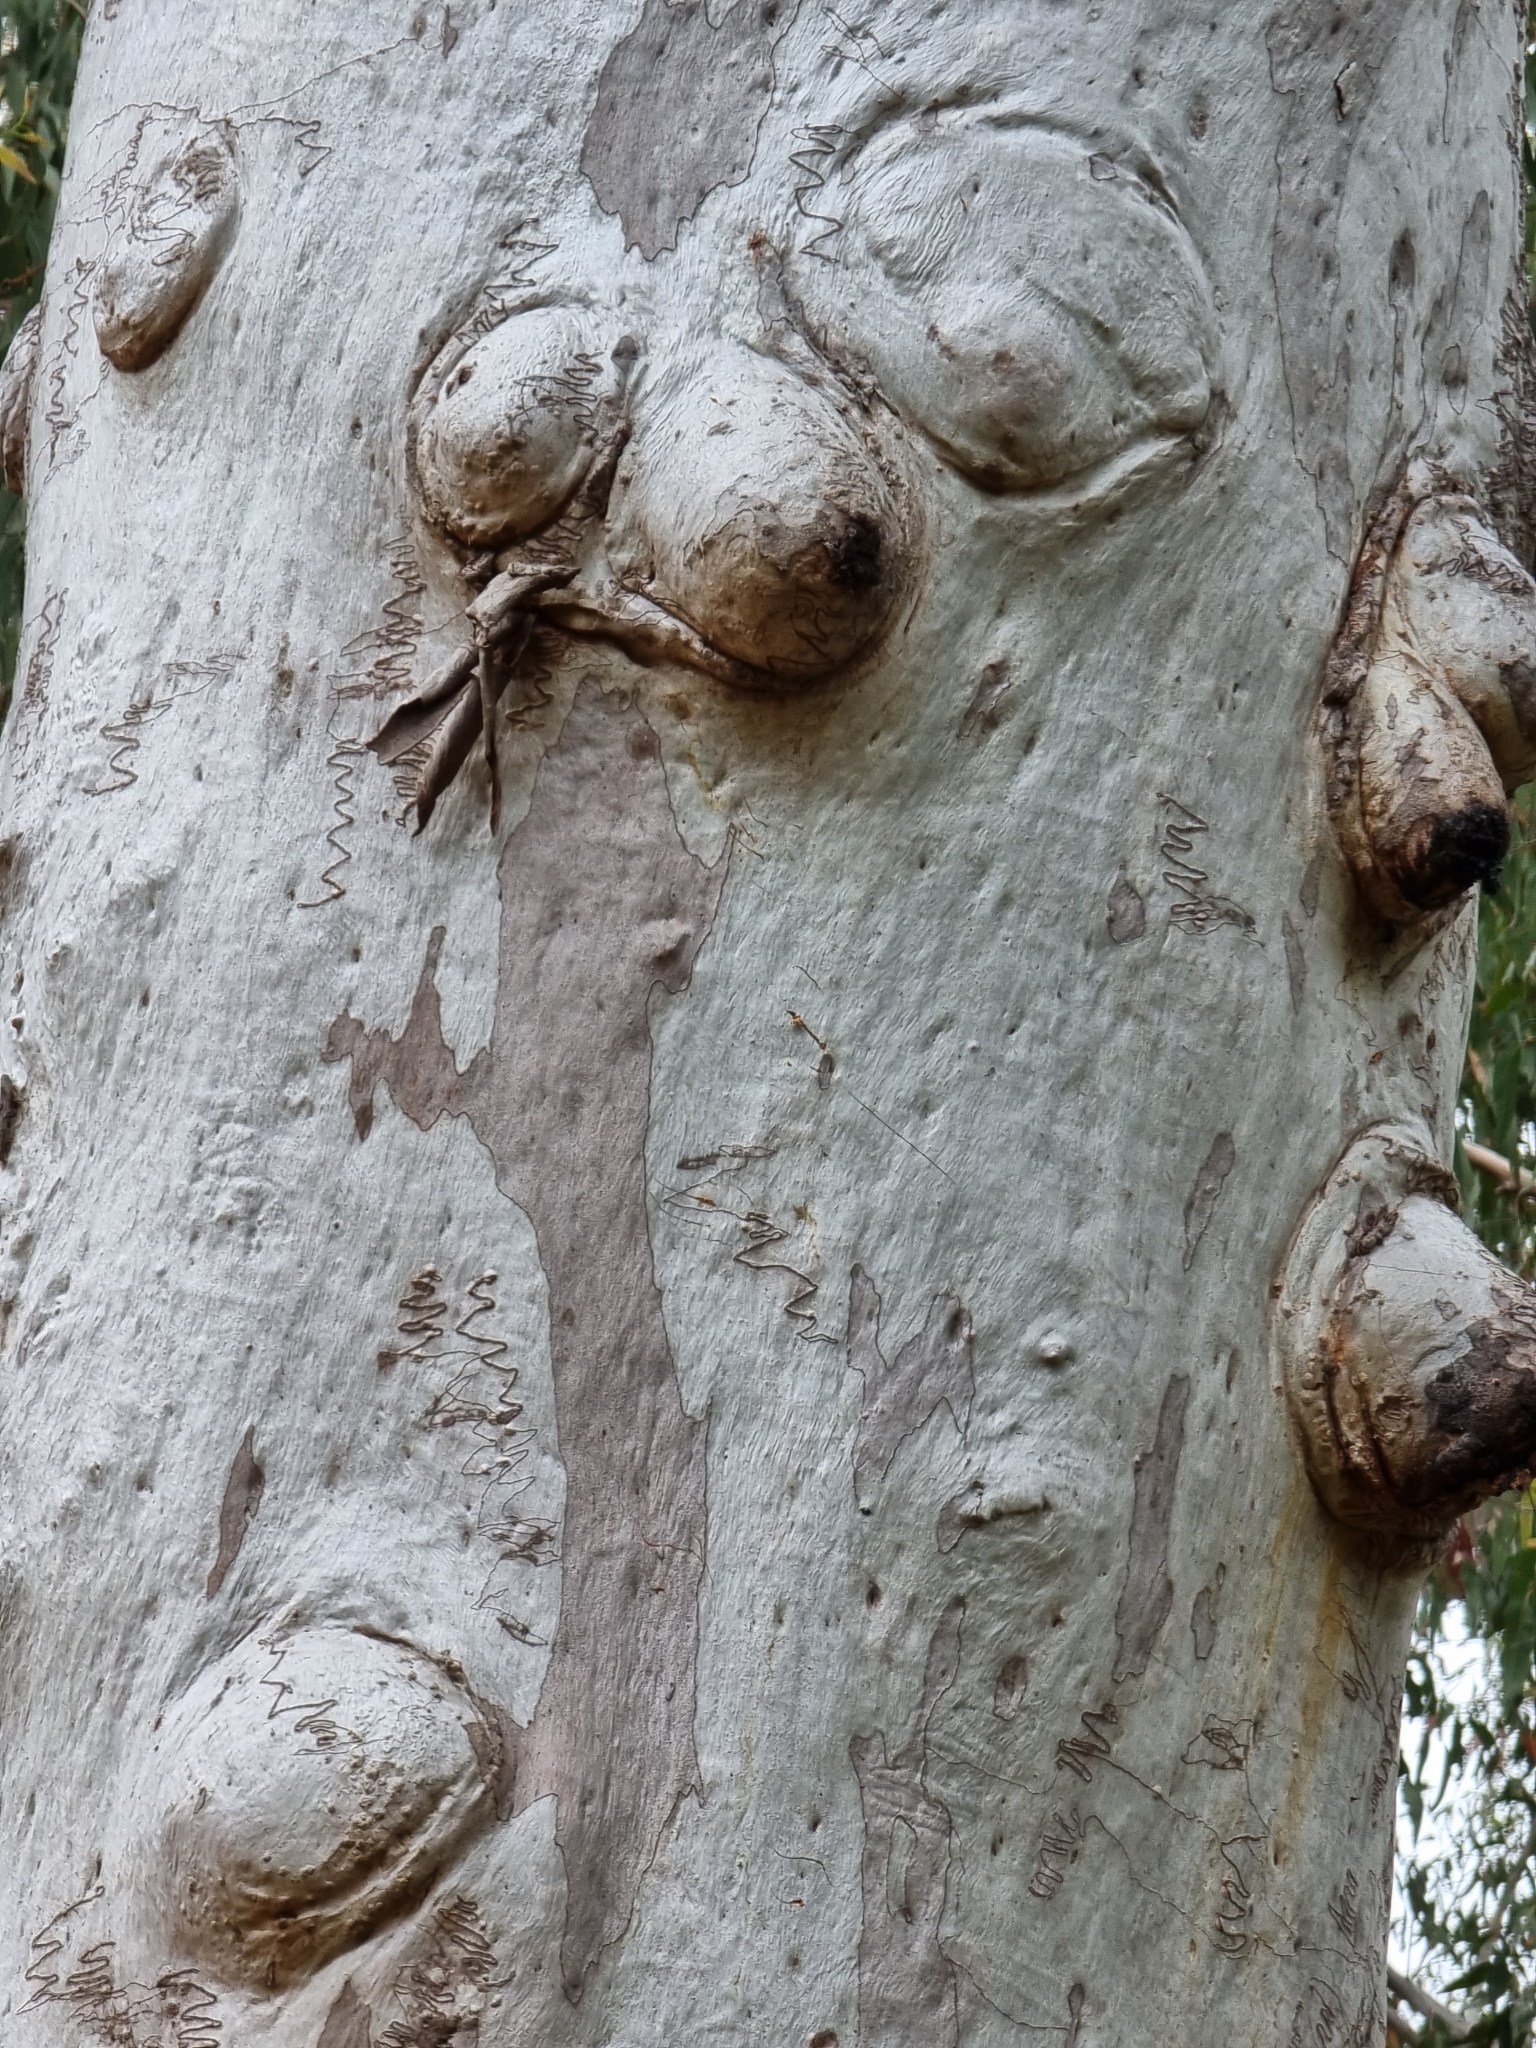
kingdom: Plantae
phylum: Tracheophyta
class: Magnoliopsida
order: Myrtales
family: Myrtaceae
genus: Eucalyptus
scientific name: Eucalyptus racemosa
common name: Scribbly gum
